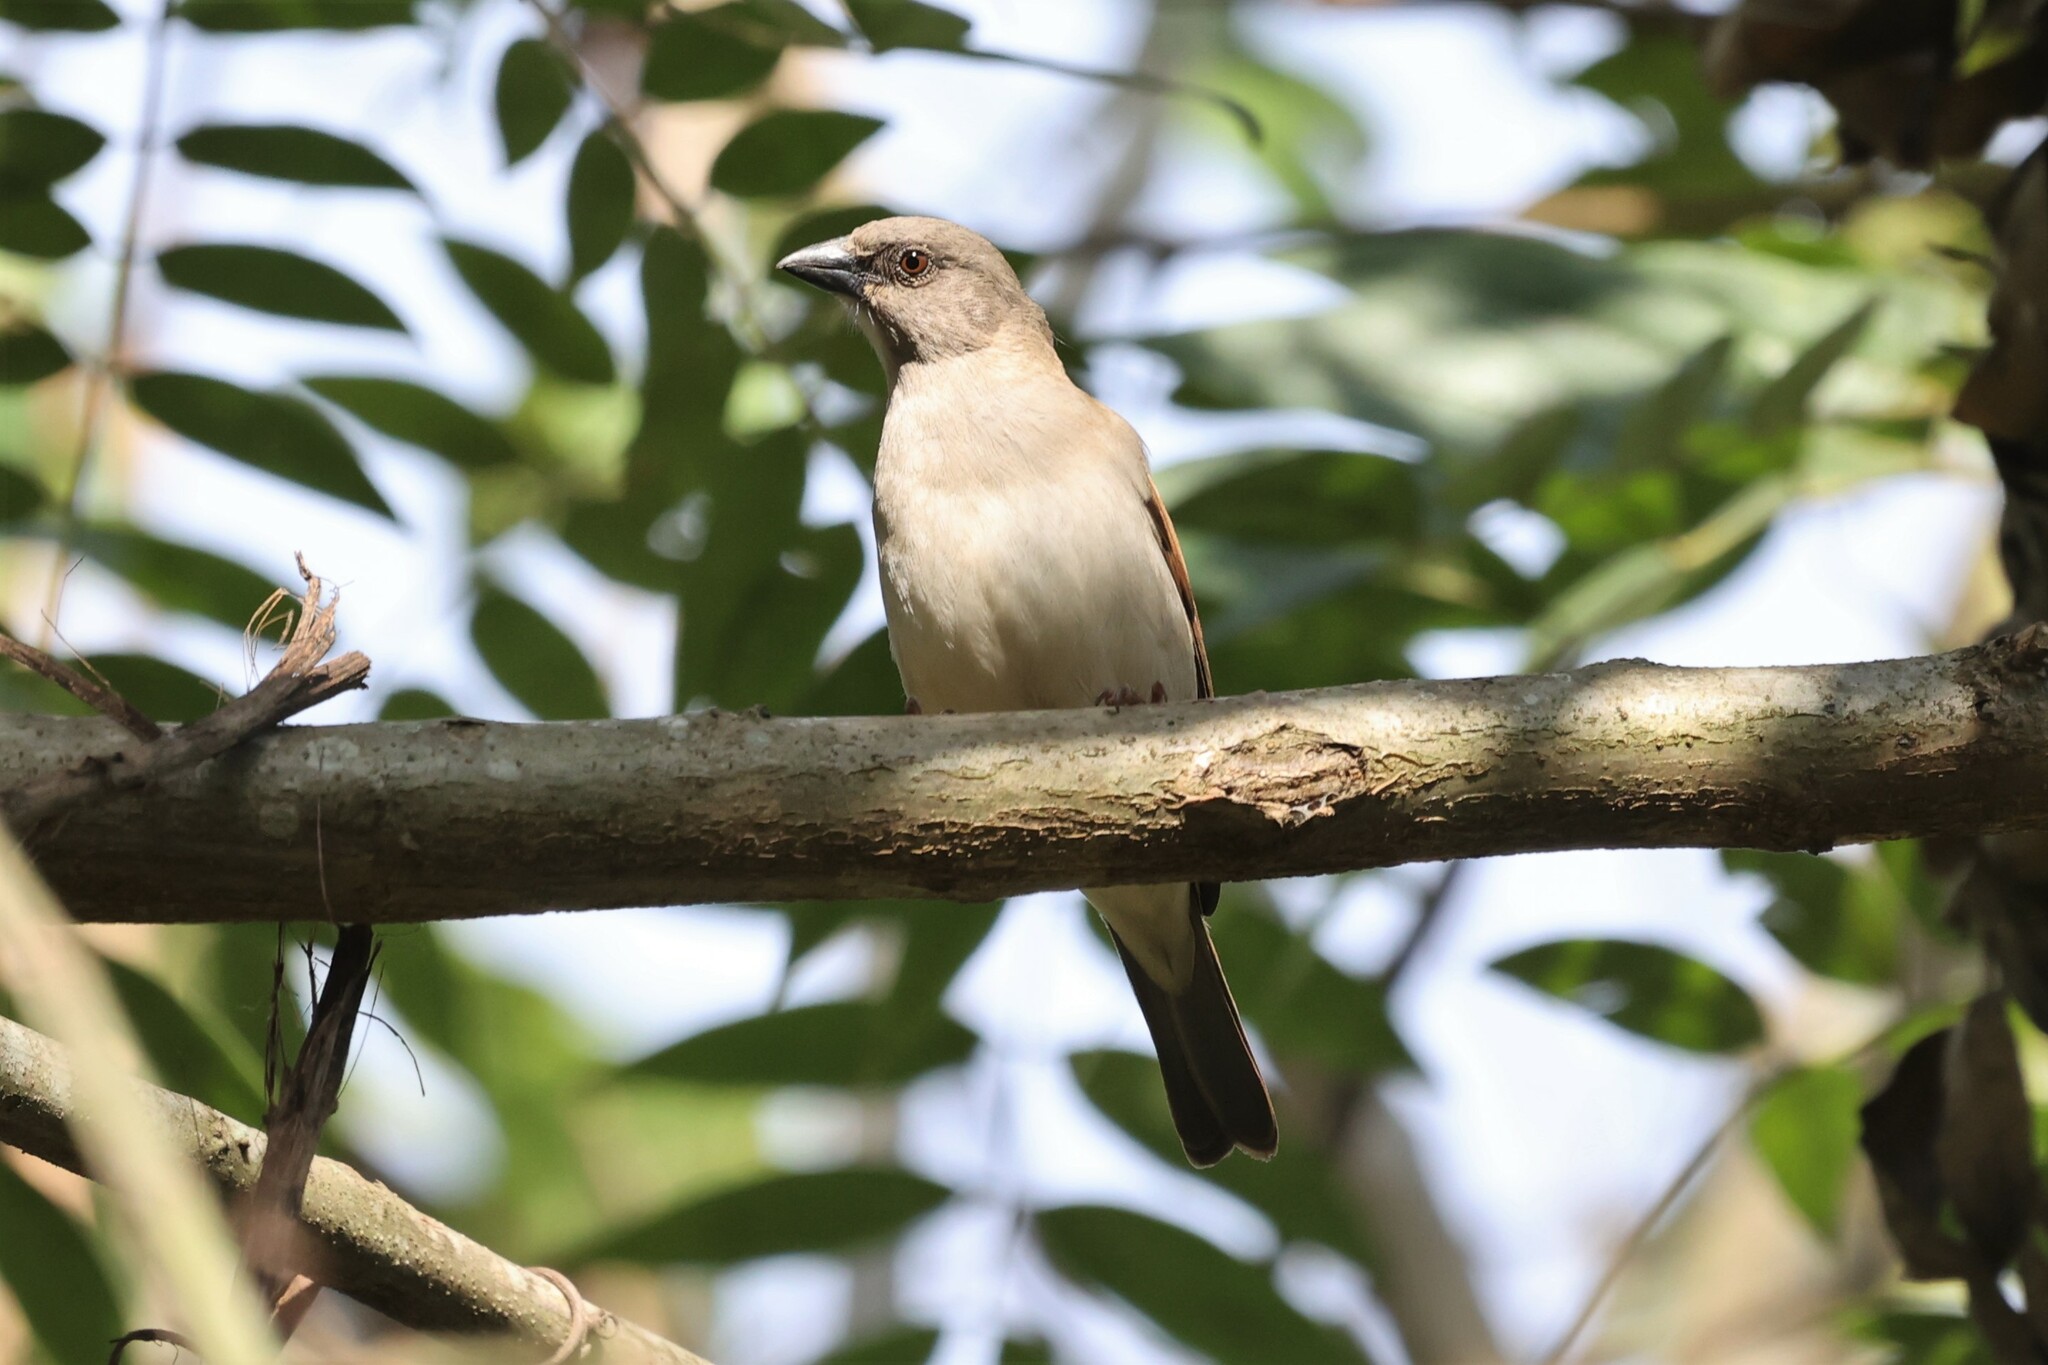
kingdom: Animalia
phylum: Chordata
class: Aves
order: Passeriformes
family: Passeridae
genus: Passer
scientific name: Passer griseus
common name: Northern grey-headed sparrow
